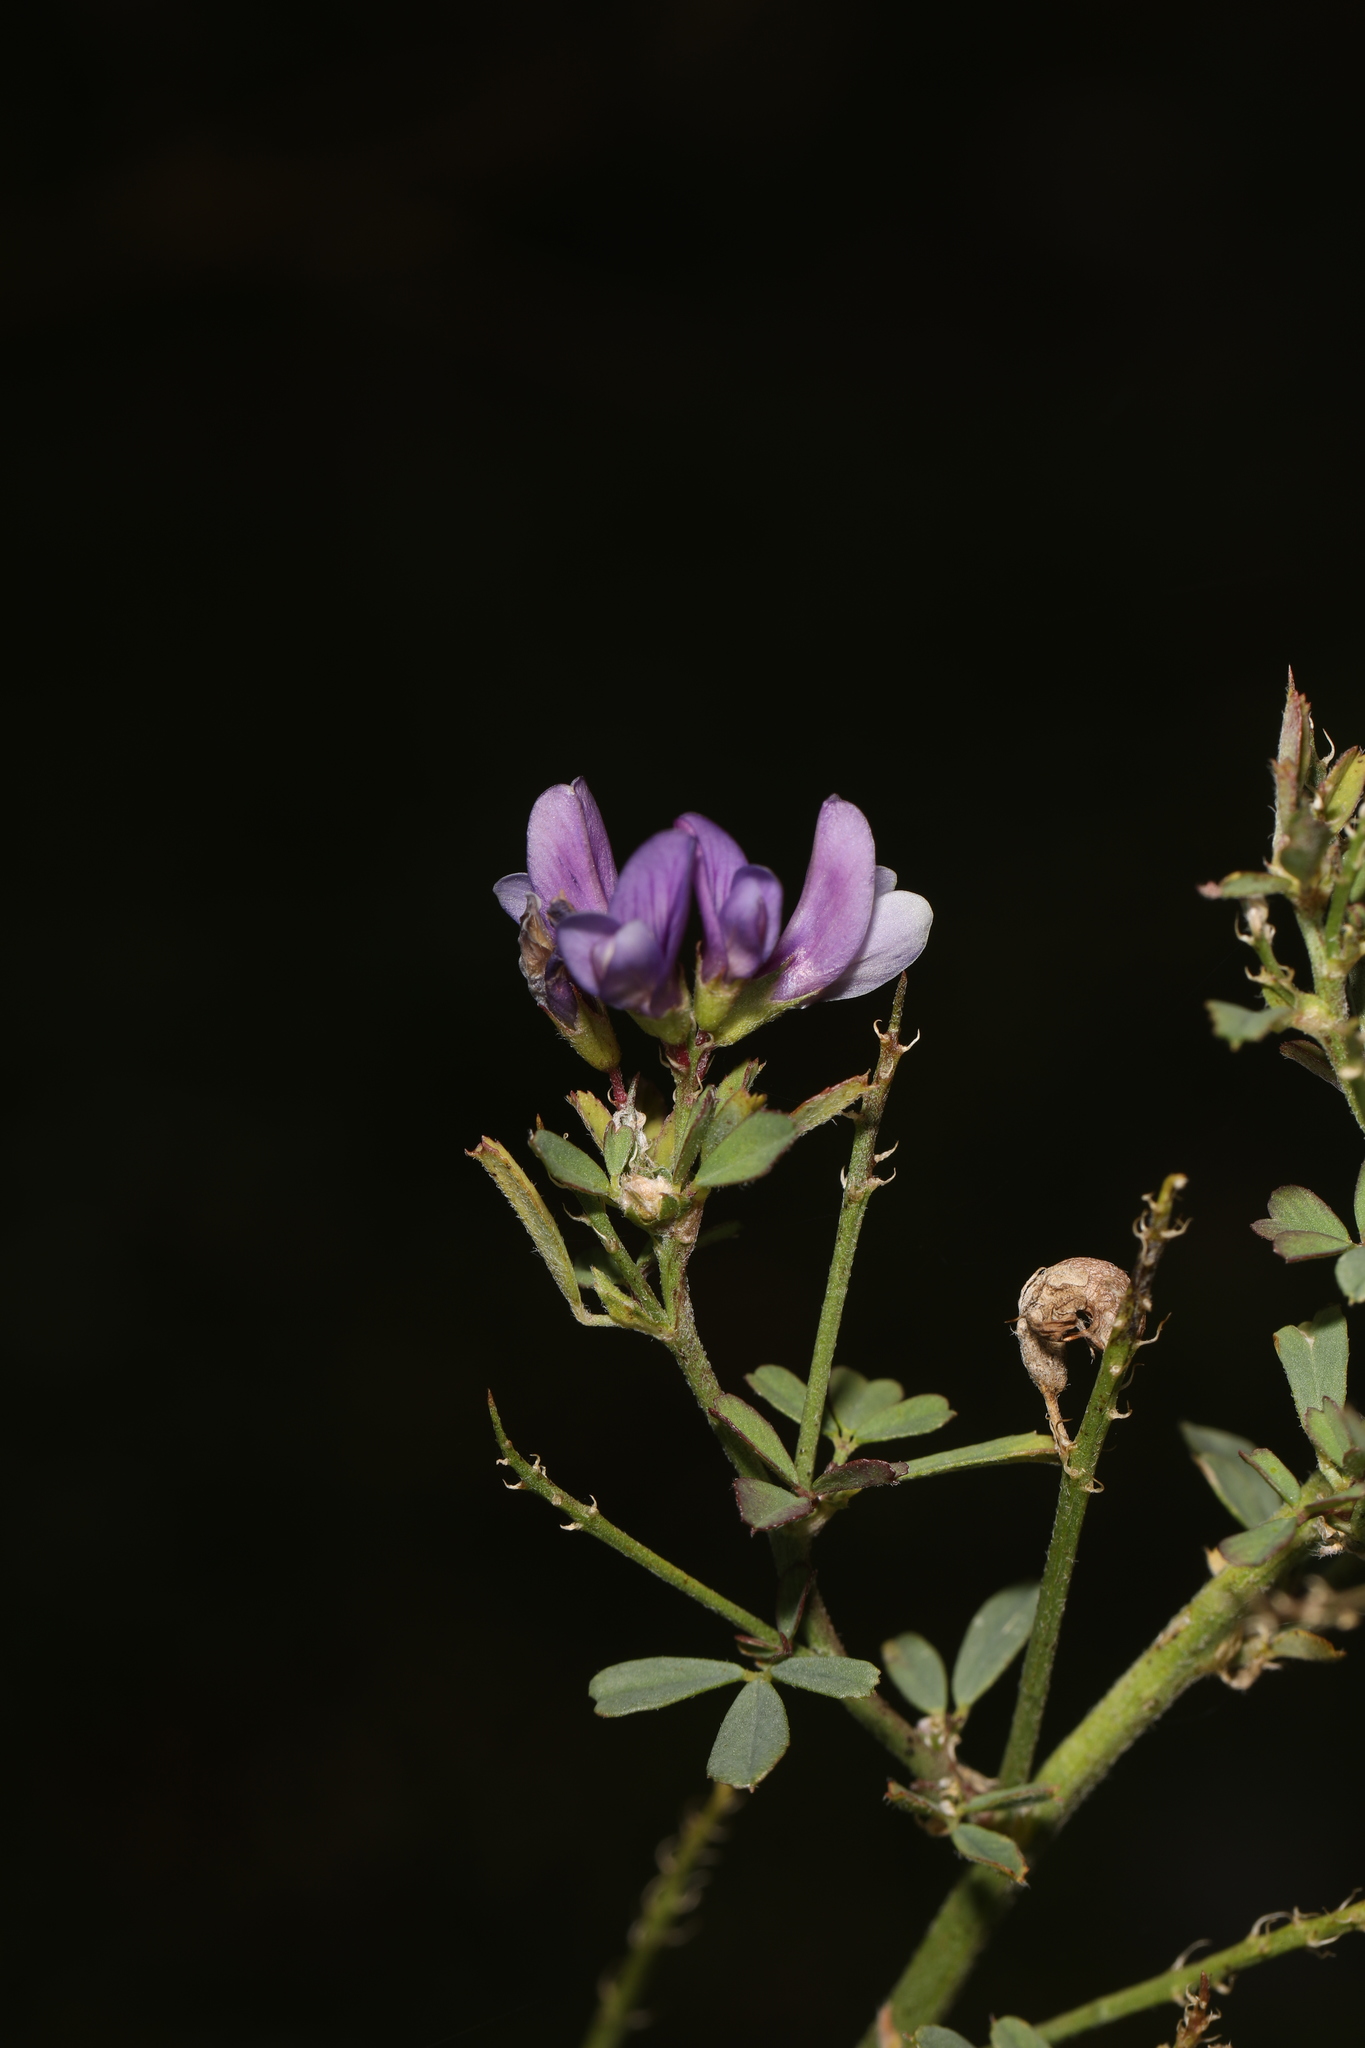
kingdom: Plantae
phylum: Tracheophyta
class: Magnoliopsida
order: Fabales
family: Fabaceae
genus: Medicago
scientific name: Medicago sativa
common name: Alfalfa
